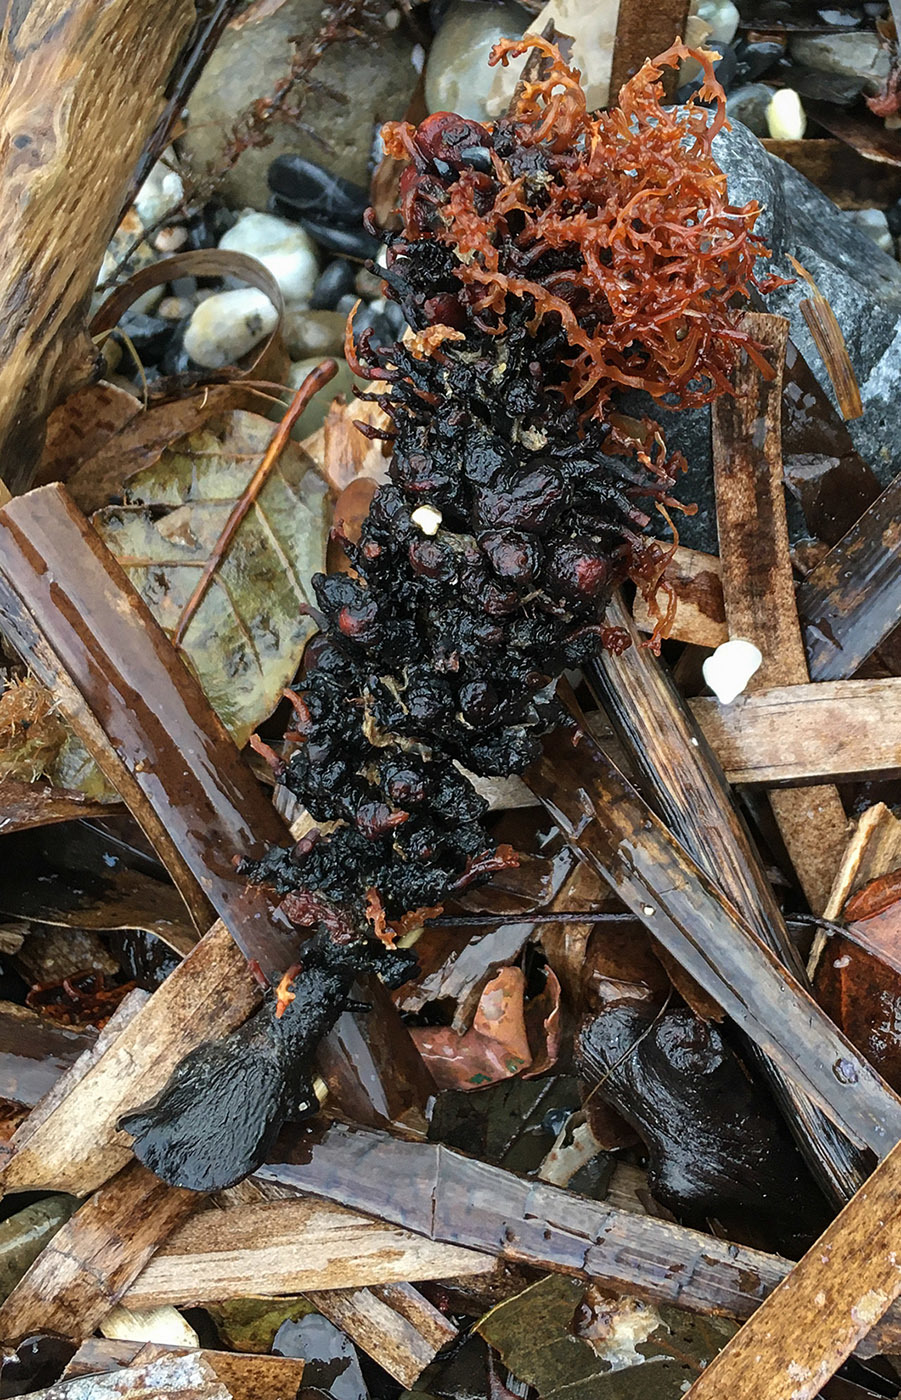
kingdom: Chromista
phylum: Ochrophyta
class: Phaeophyceae
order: Fucales
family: Sargassaceae
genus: Cystoseira
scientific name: Cystoseira Gongolaria montagnei
